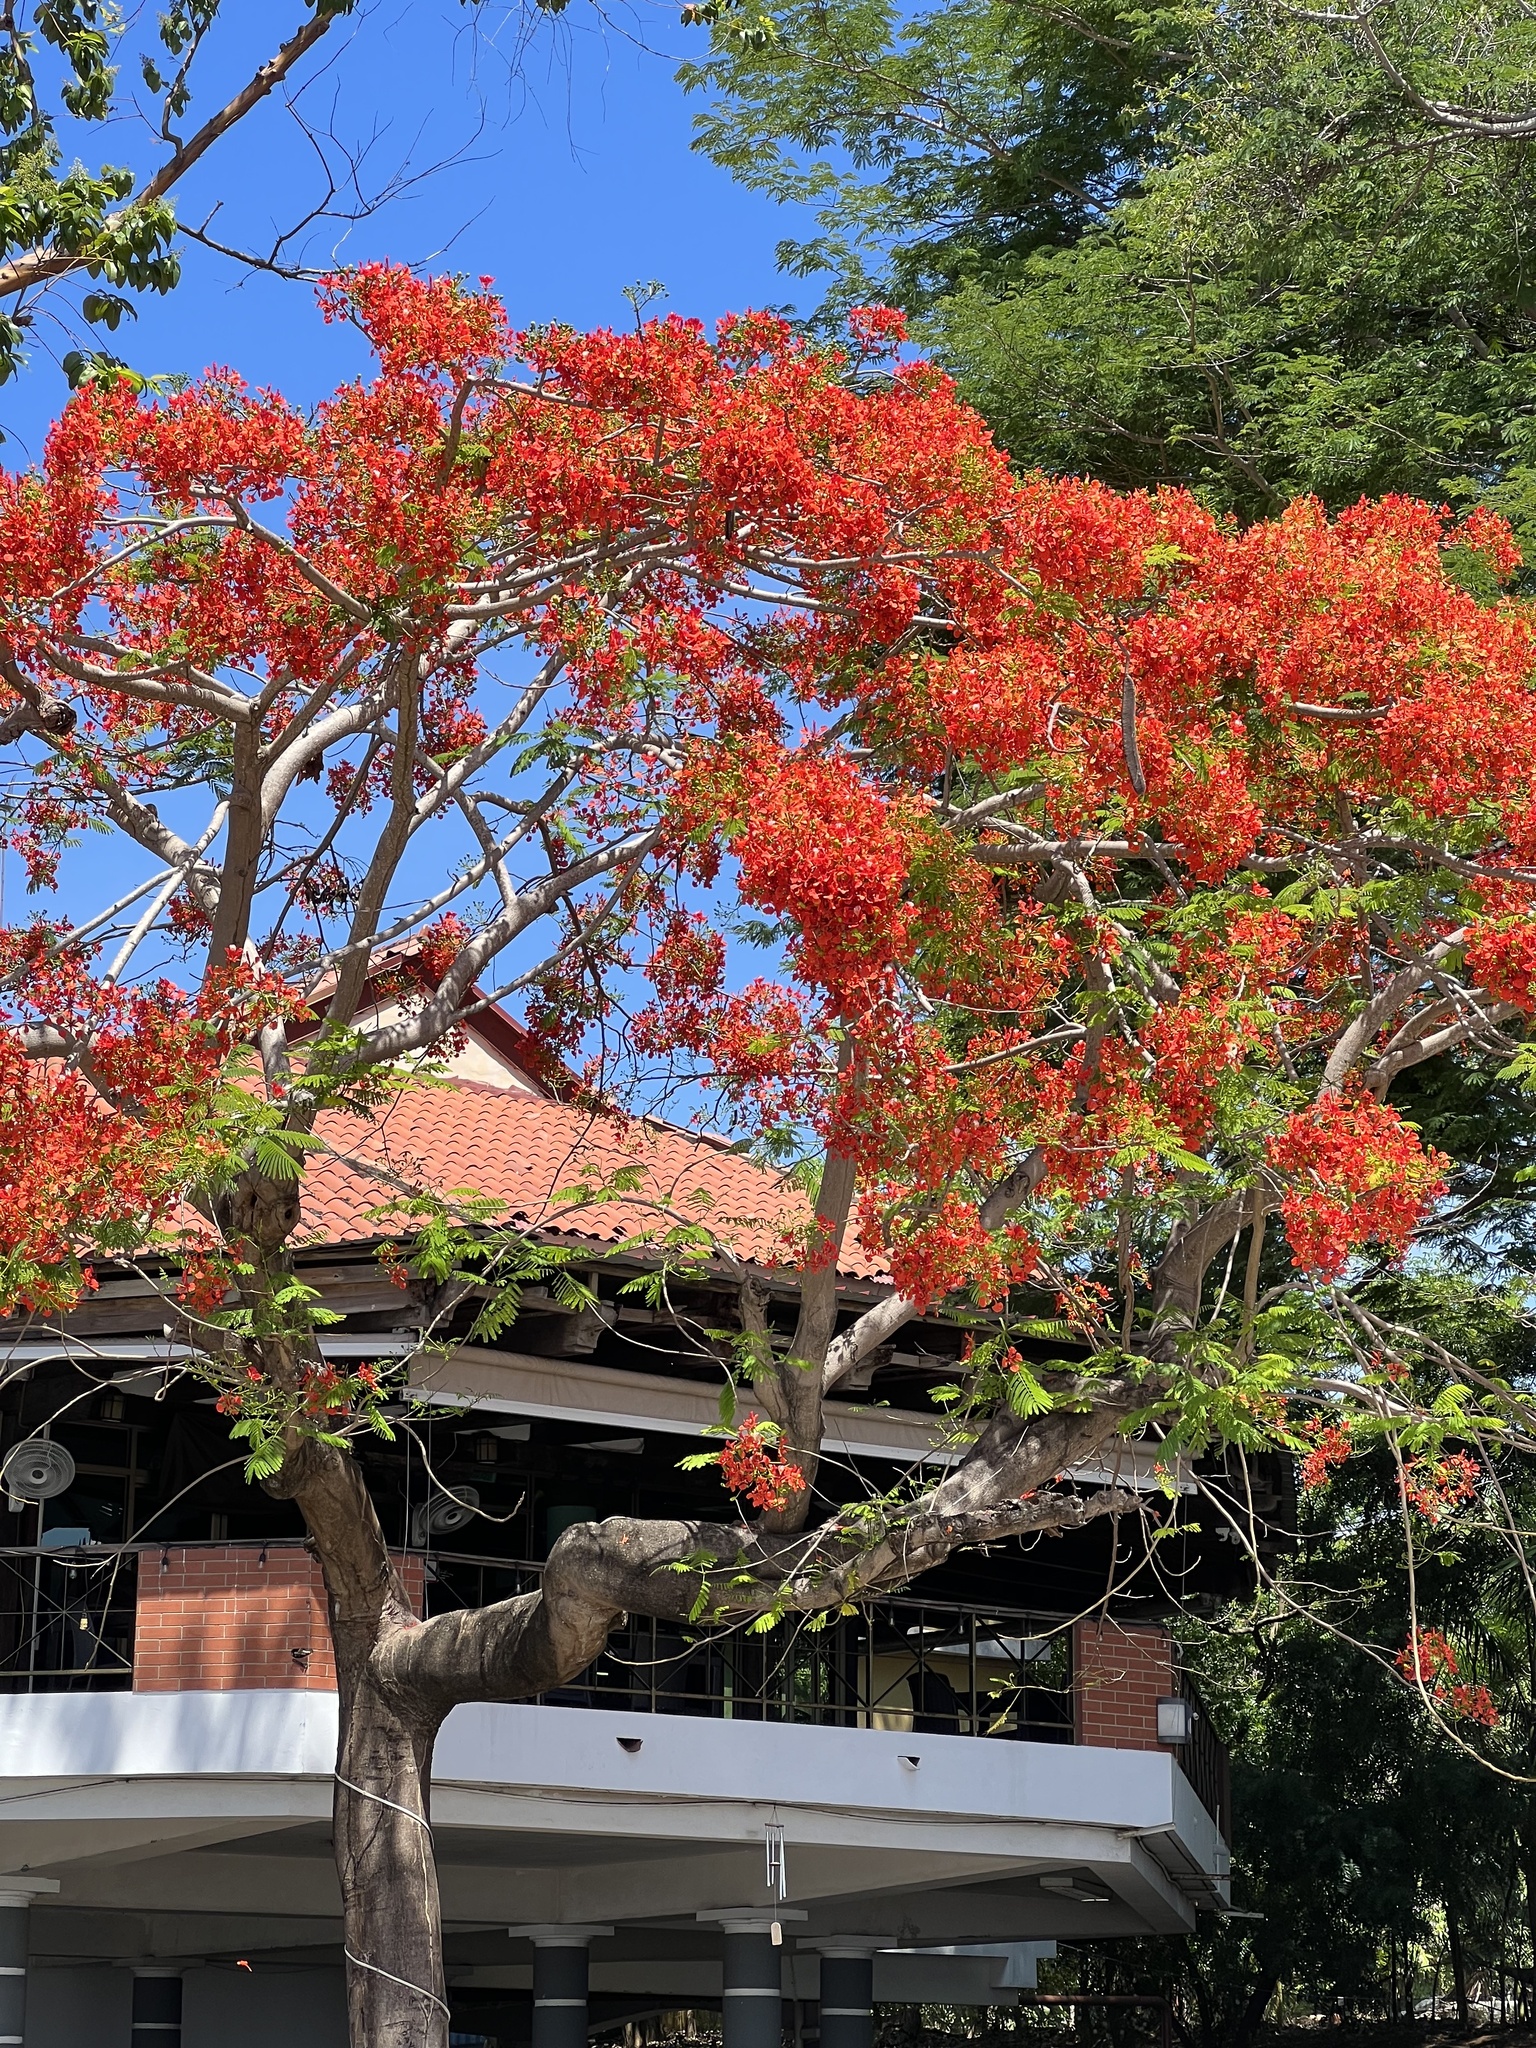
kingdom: Plantae
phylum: Tracheophyta
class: Magnoliopsida
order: Fabales
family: Fabaceae
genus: Delonix
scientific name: Delonix regia
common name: Royal poinciana
